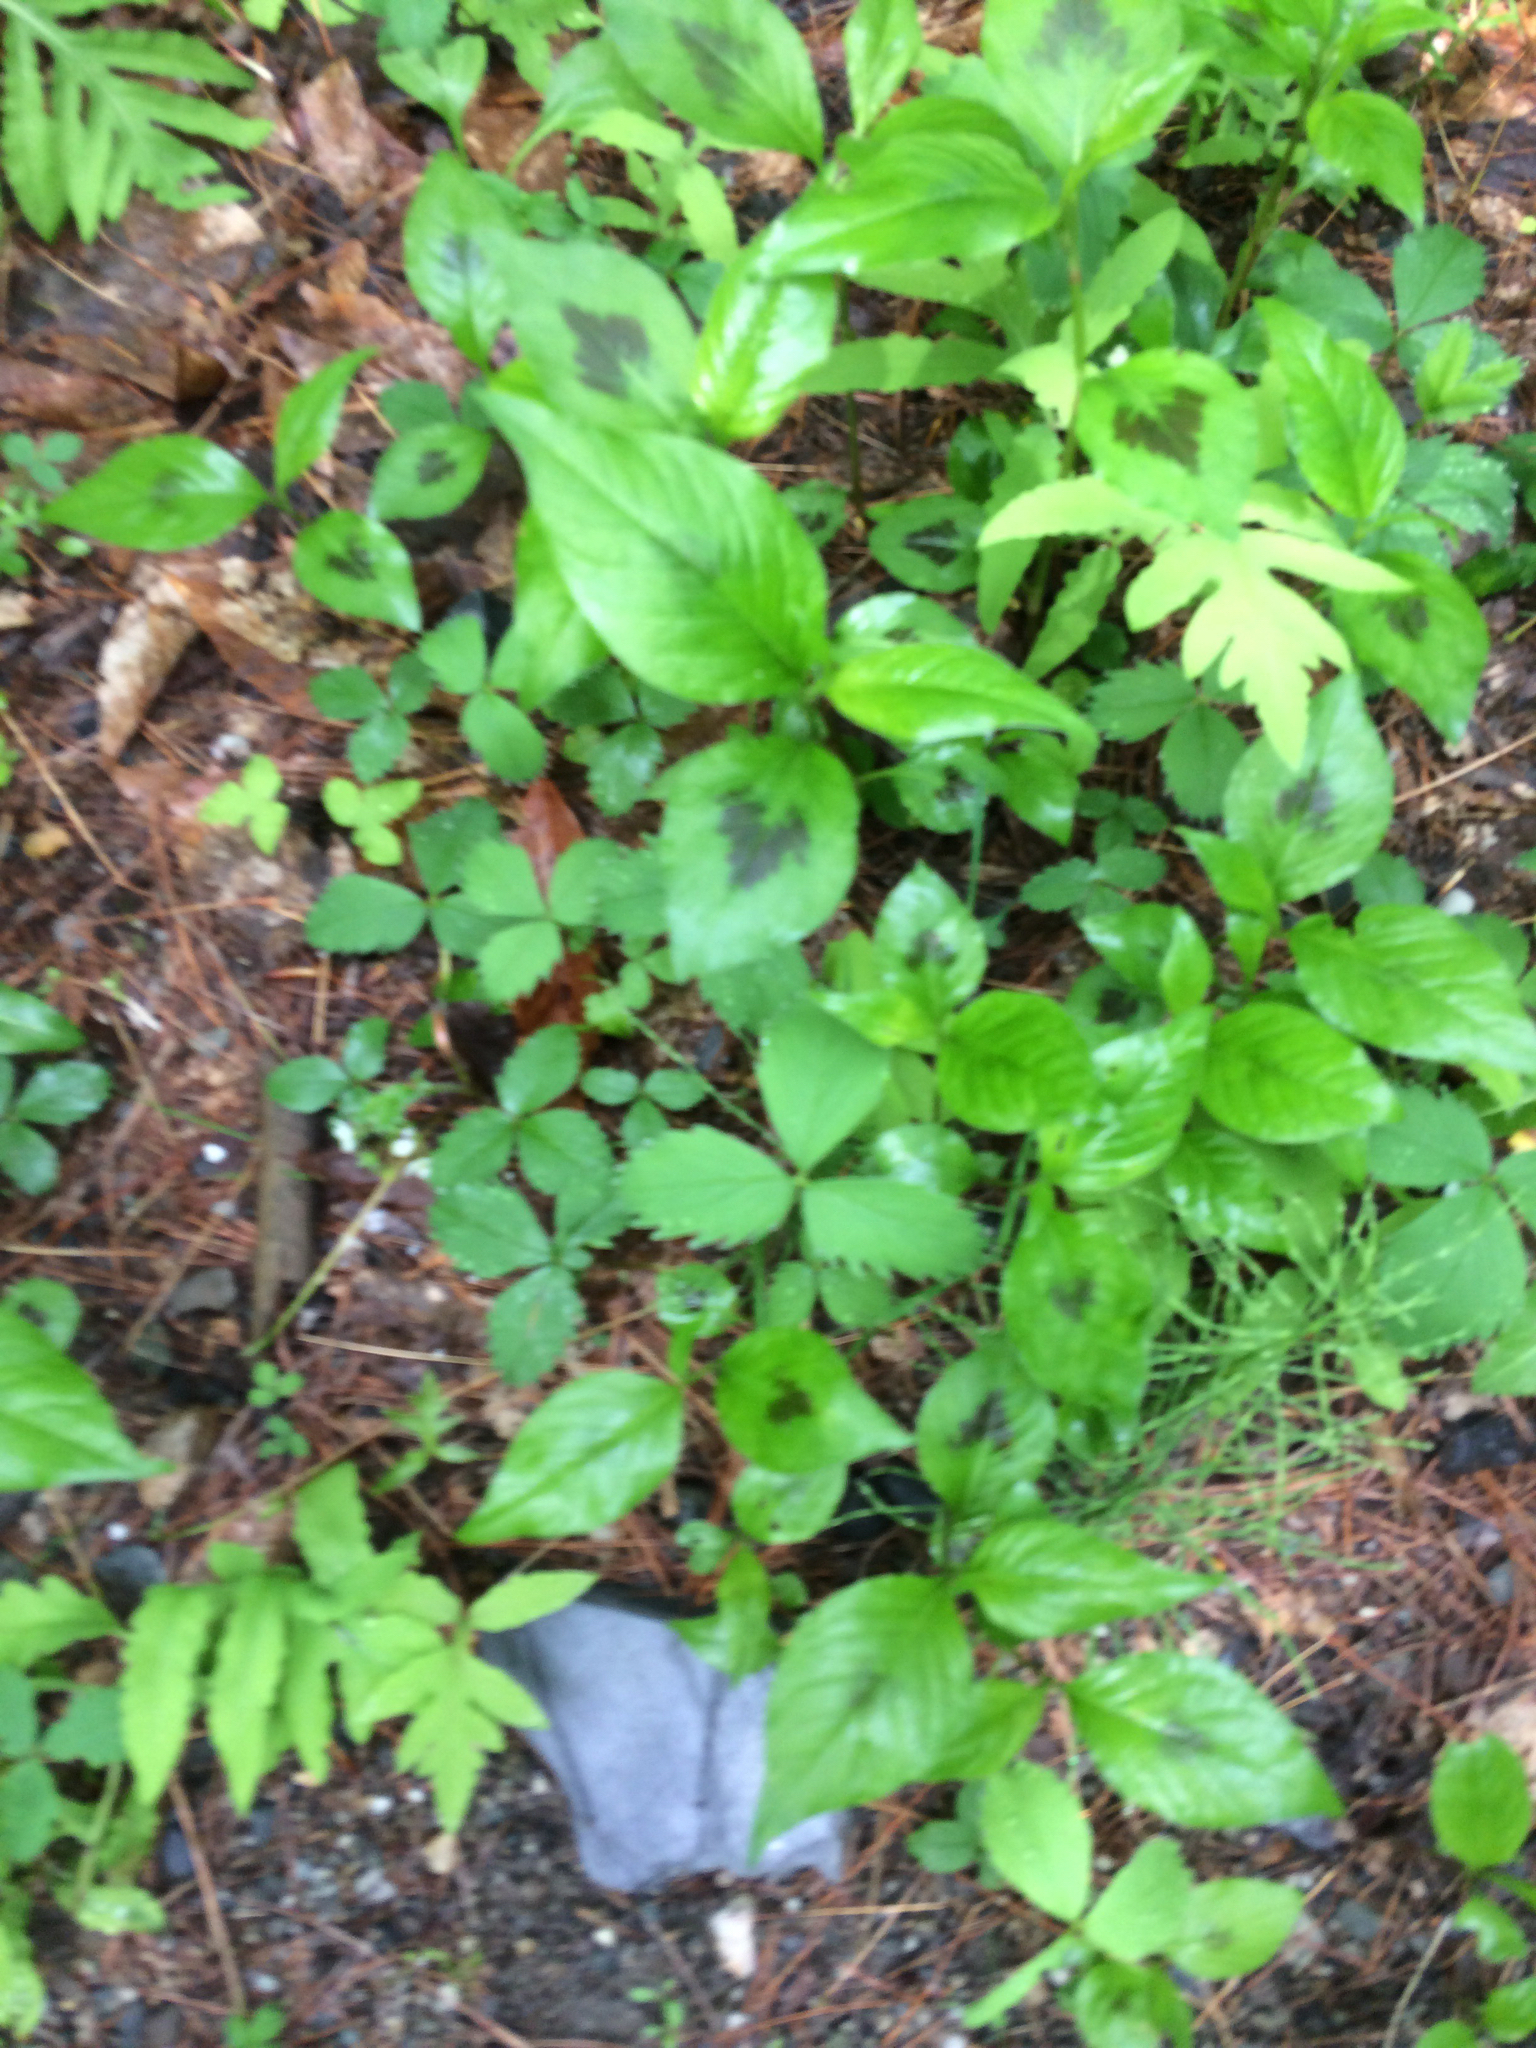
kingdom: Plantae
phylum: Tracheophyta
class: Magnoliopsida
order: Caryophyllales
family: Polygonaceae
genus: Persicaria
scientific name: Persicaria virginiana
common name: Jumpseed
